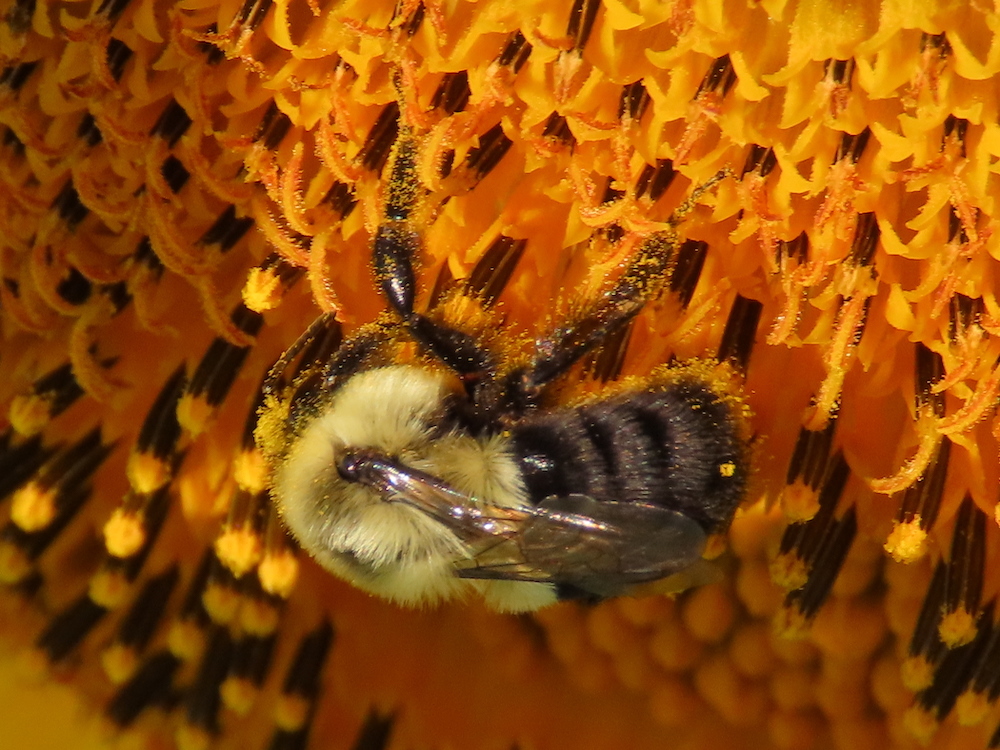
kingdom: Animalia
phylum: Arthropoda
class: Insecta
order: Hymenoptera
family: Apidae
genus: Bombus
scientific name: Bombus impatiens
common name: Common eastern bumble bee
